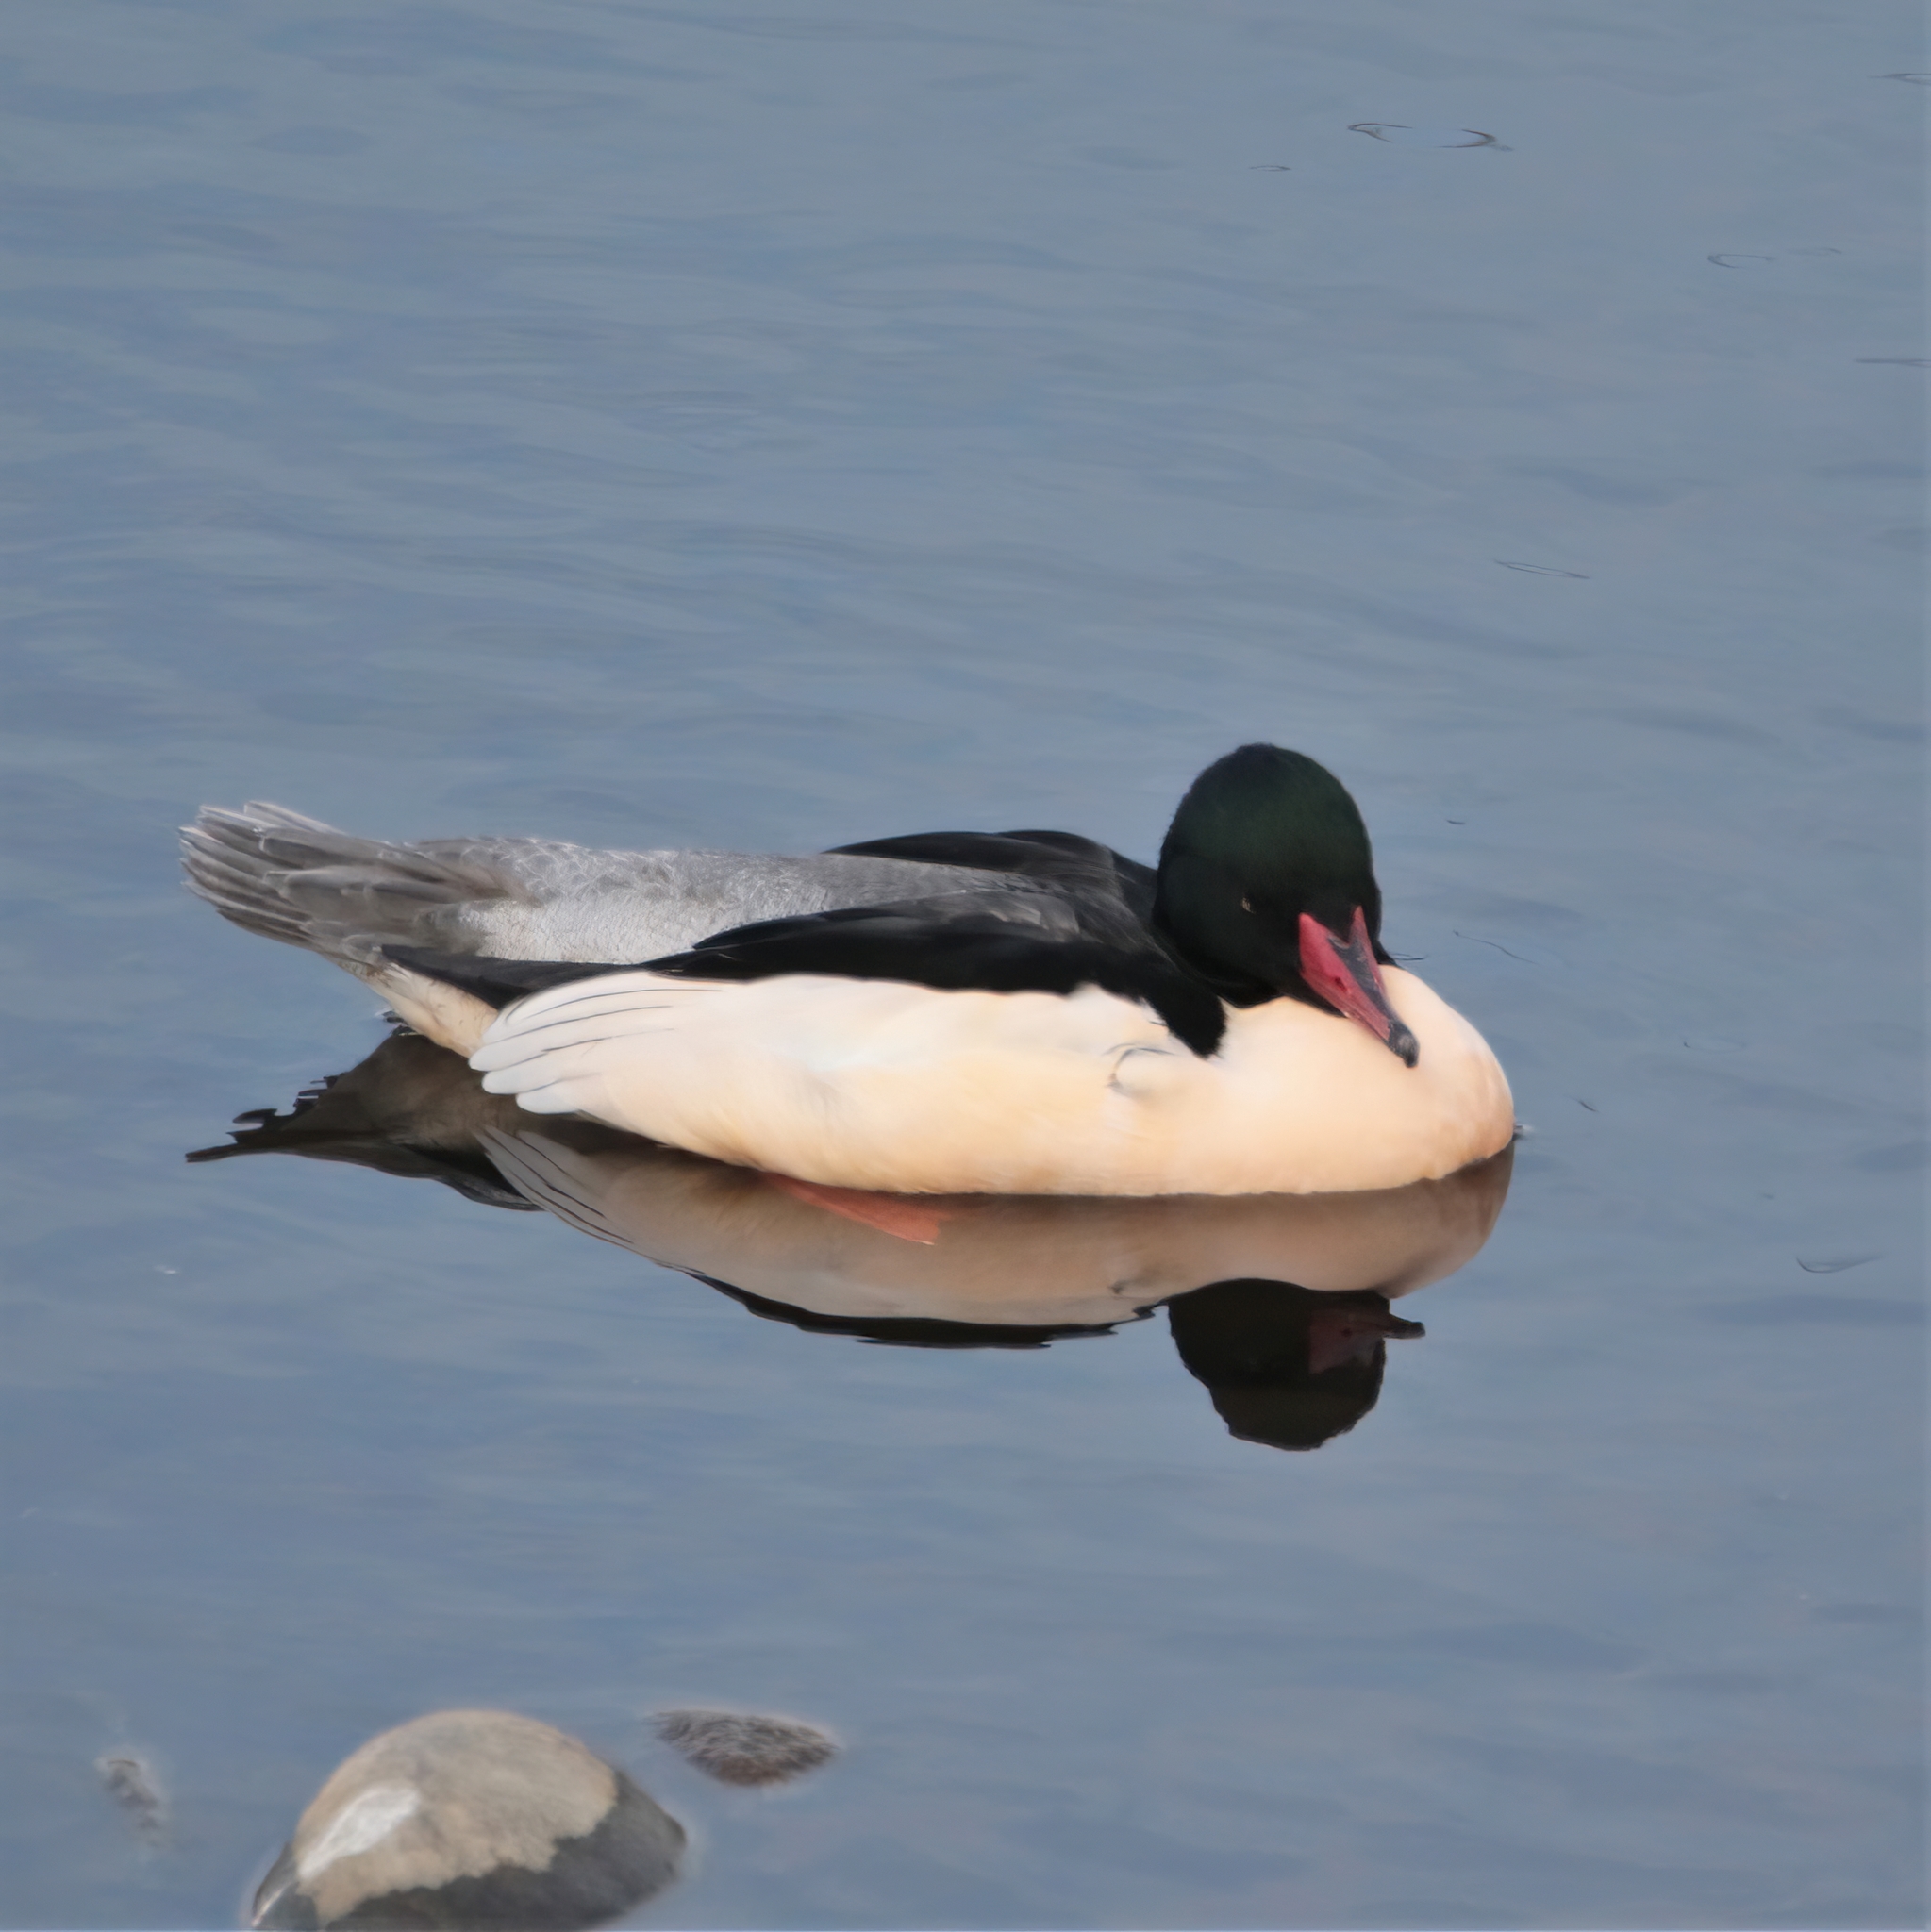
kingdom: Animalia
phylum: Chordata
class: Aves
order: Anseriformes
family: Anatidae
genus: Mergus
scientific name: Mergus merganser
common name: Common merganser
